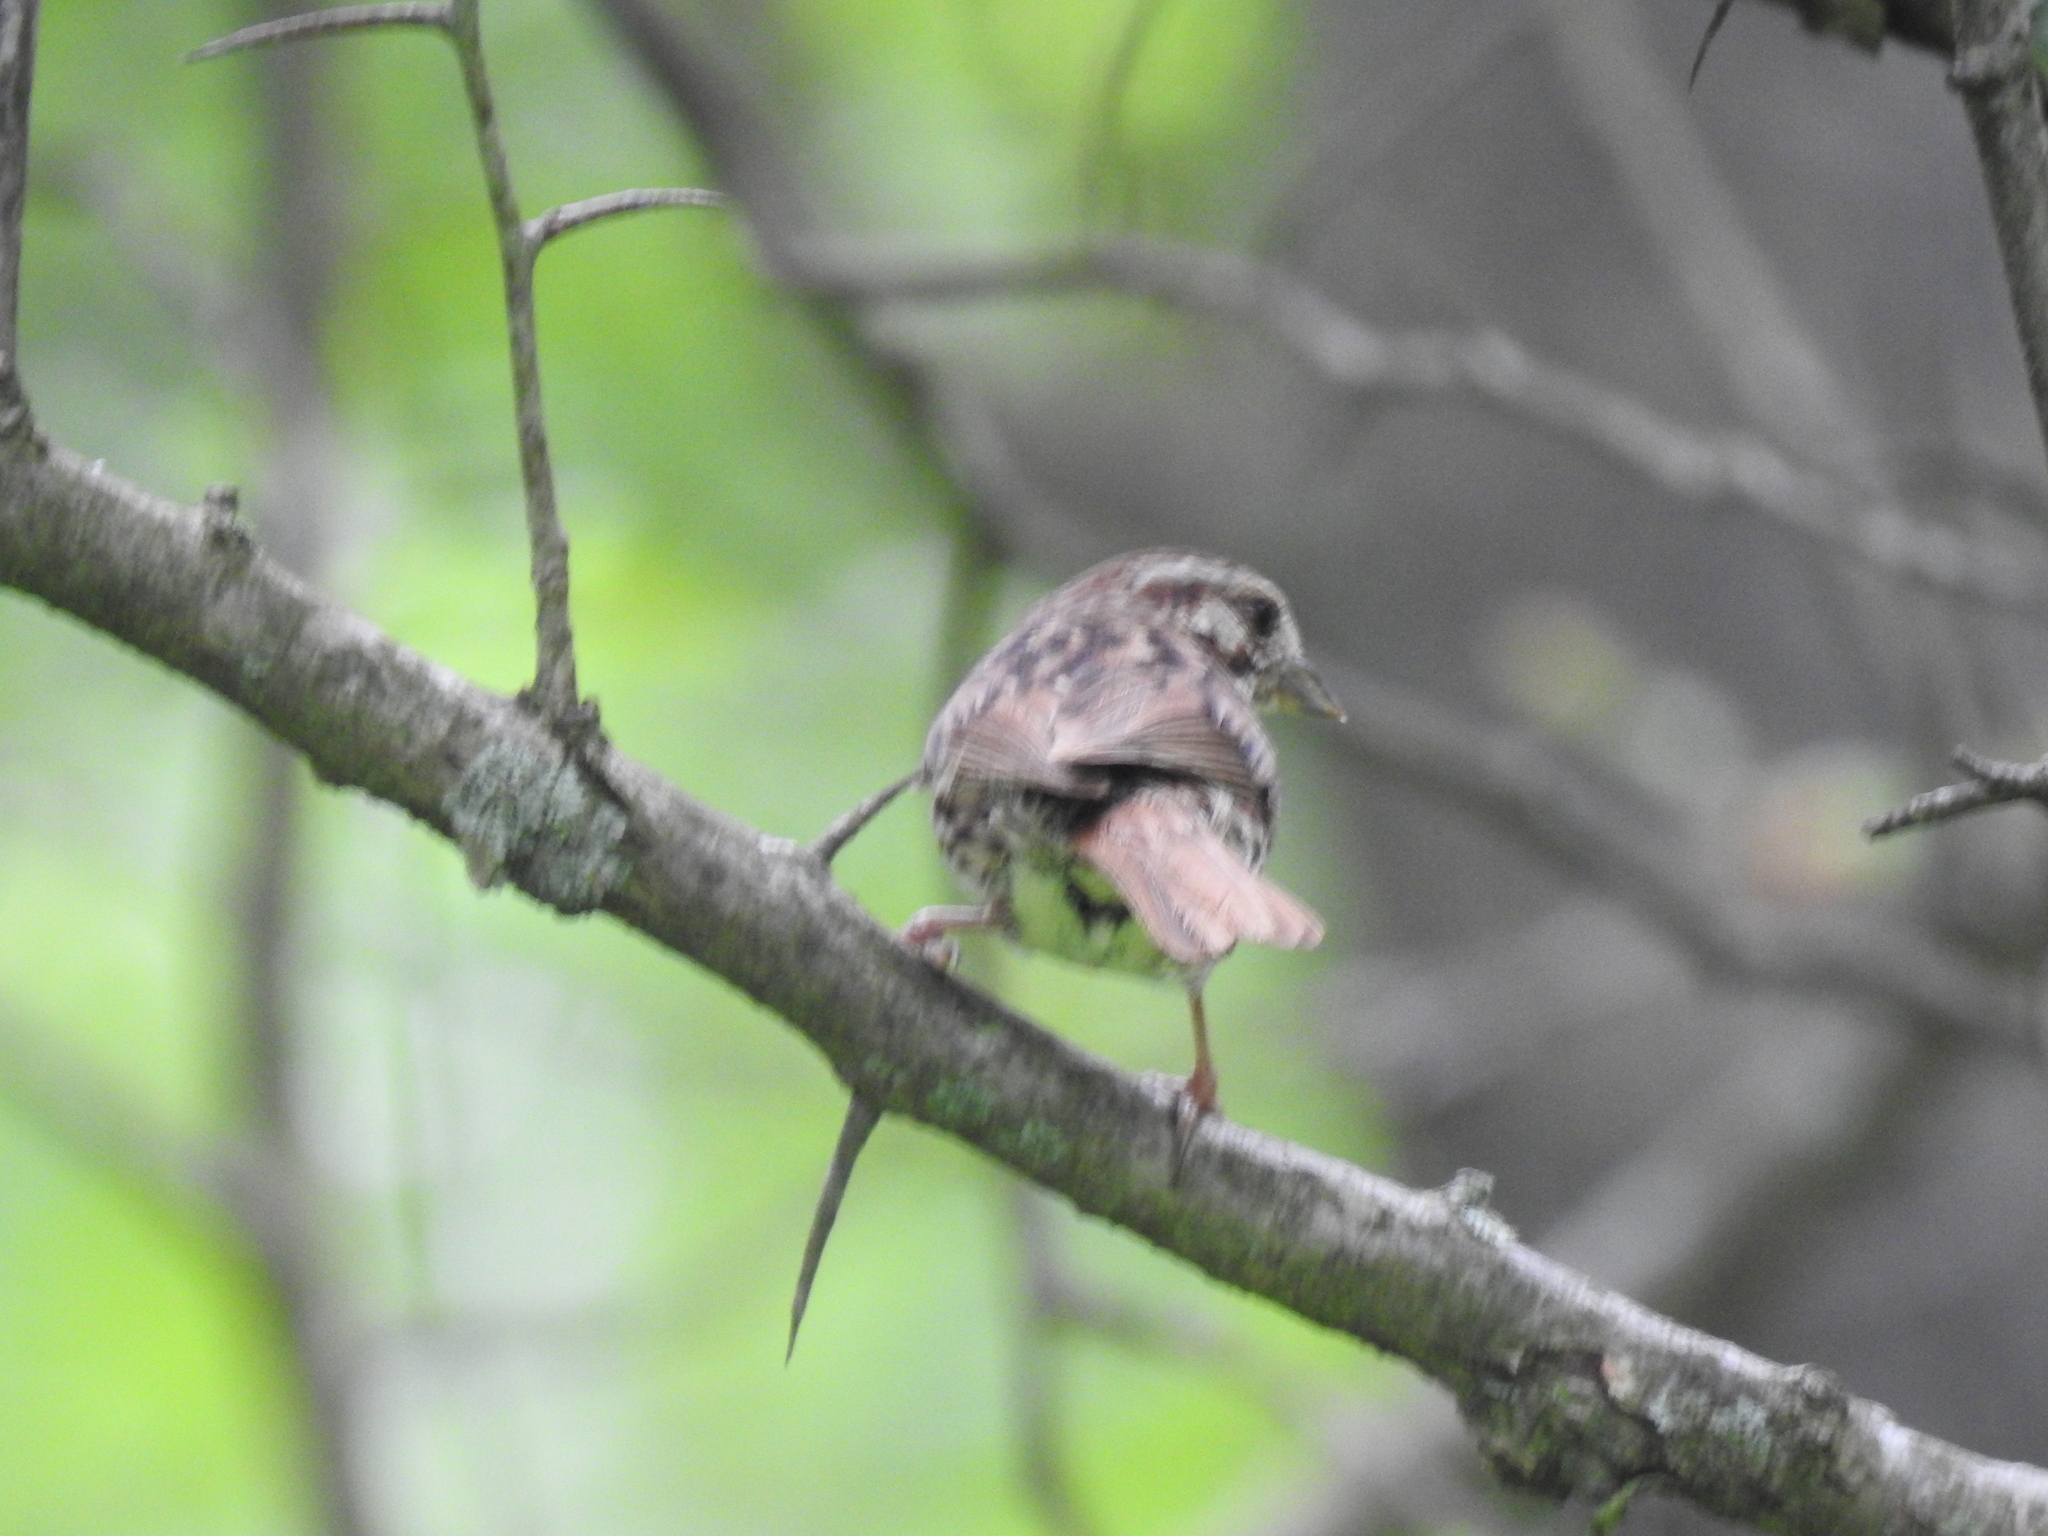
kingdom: Animalia
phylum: Chordata
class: Aves
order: Passeriformes
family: Passerellidae
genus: Melospiza
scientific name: Melospiza melodia
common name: Song sparrow
